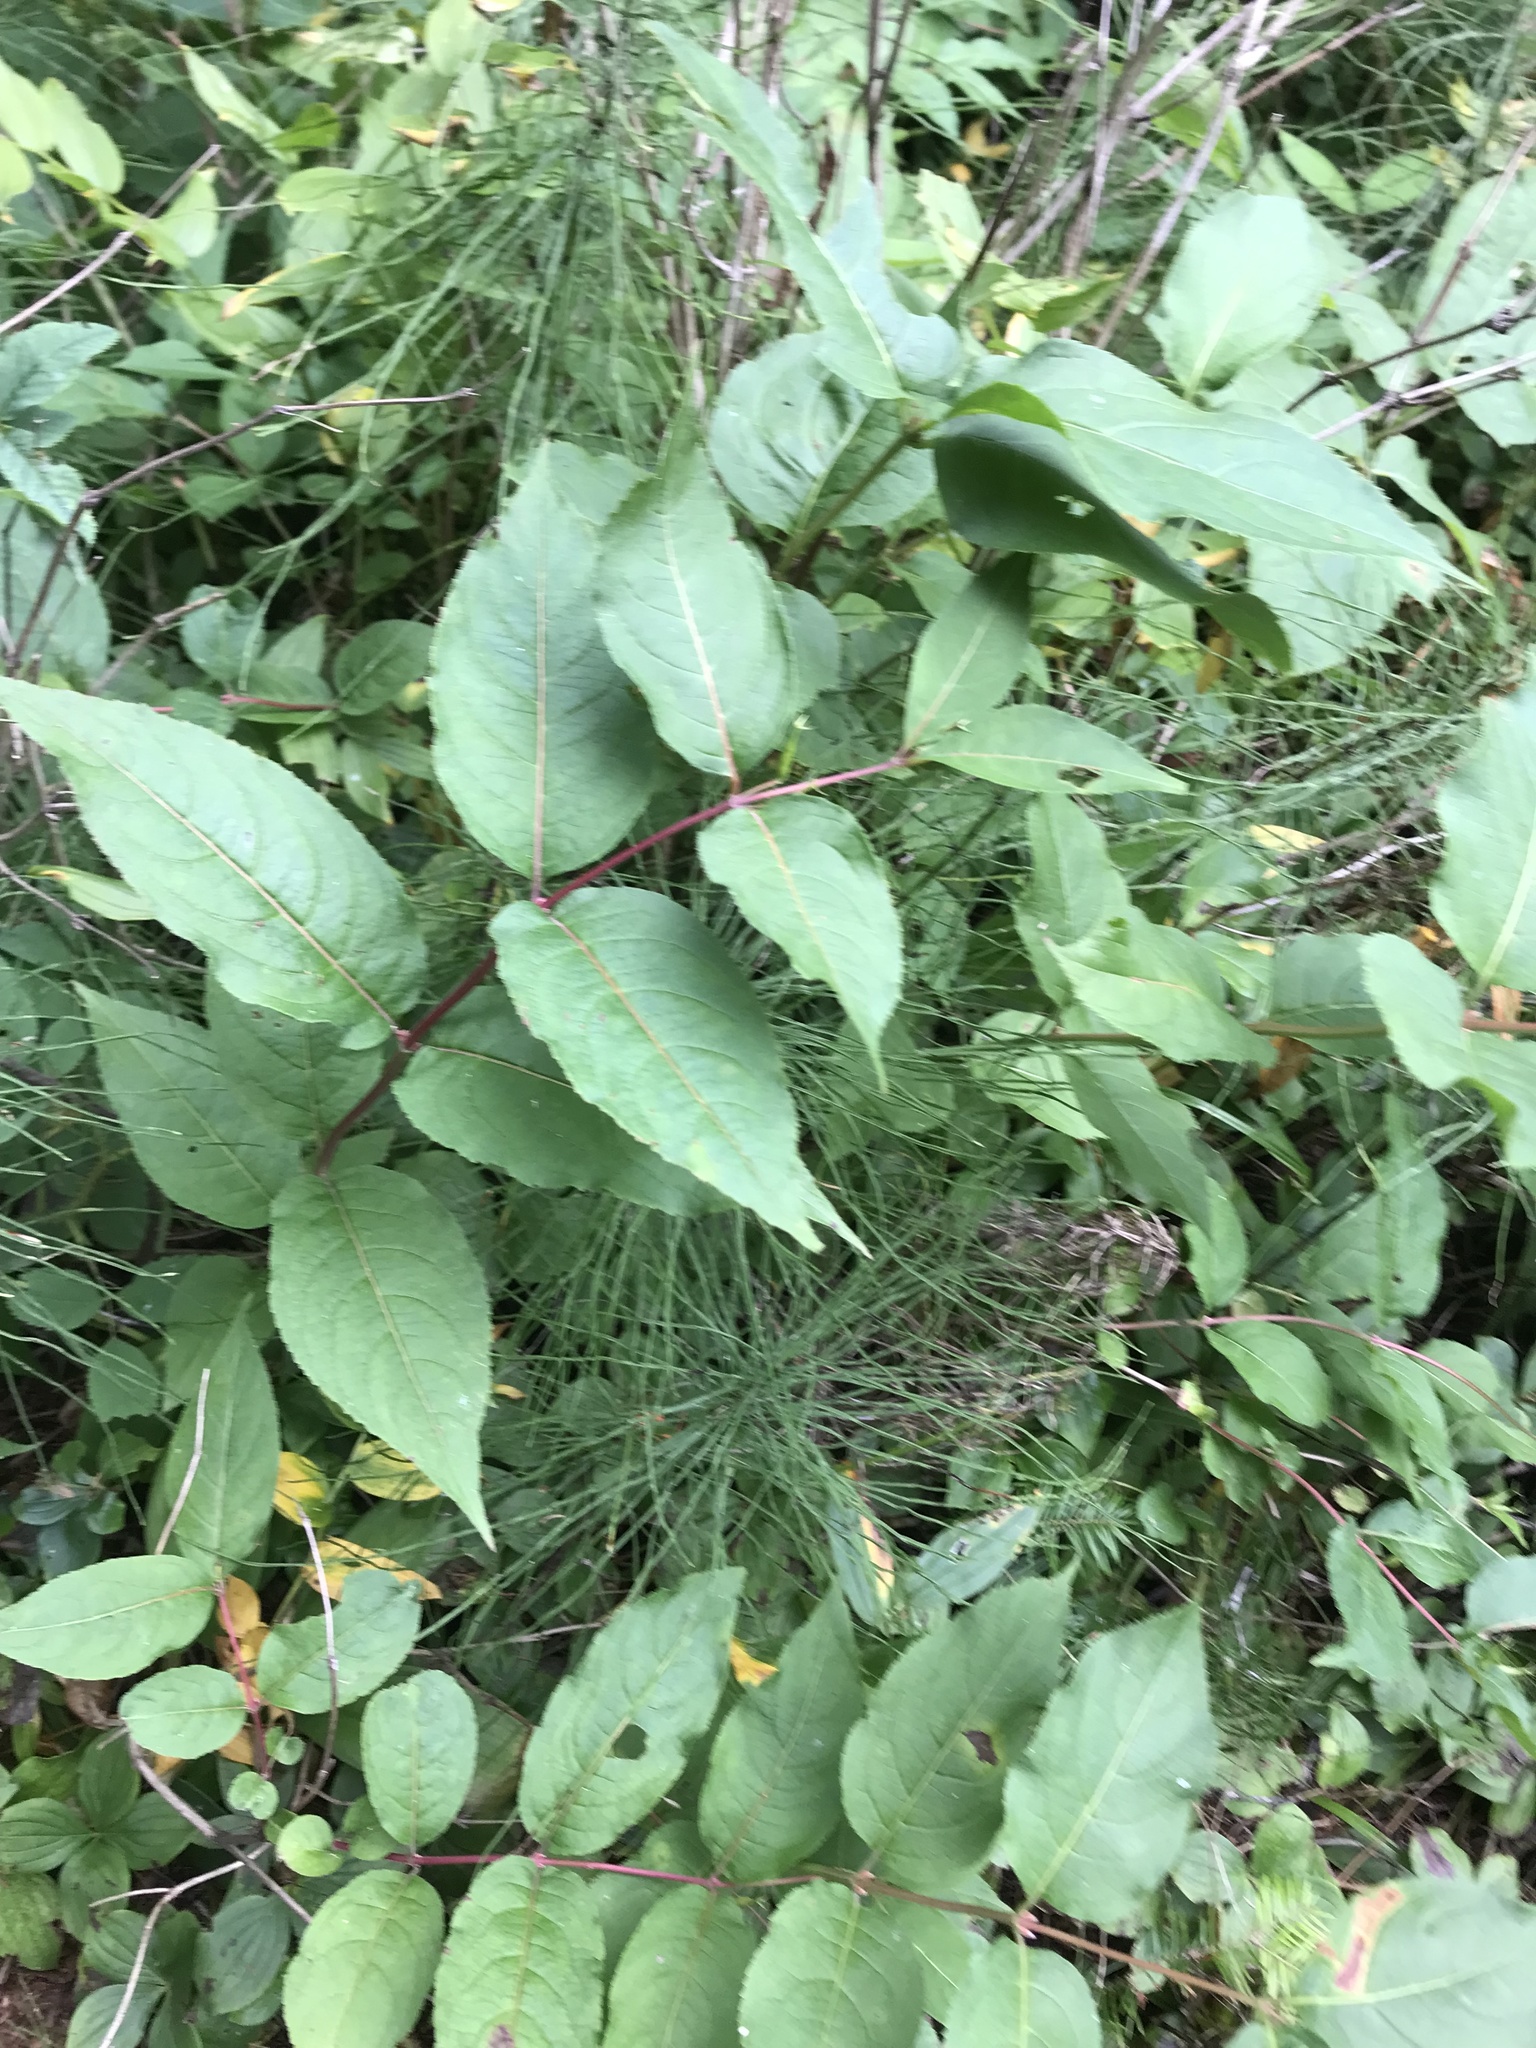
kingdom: Plantae
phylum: Tracheophyta
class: Magnoliopsida
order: Dipsacales
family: Caprifoliaceae
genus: Diervilla
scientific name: Diervilla lonicera
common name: Bush-honeysuckle
